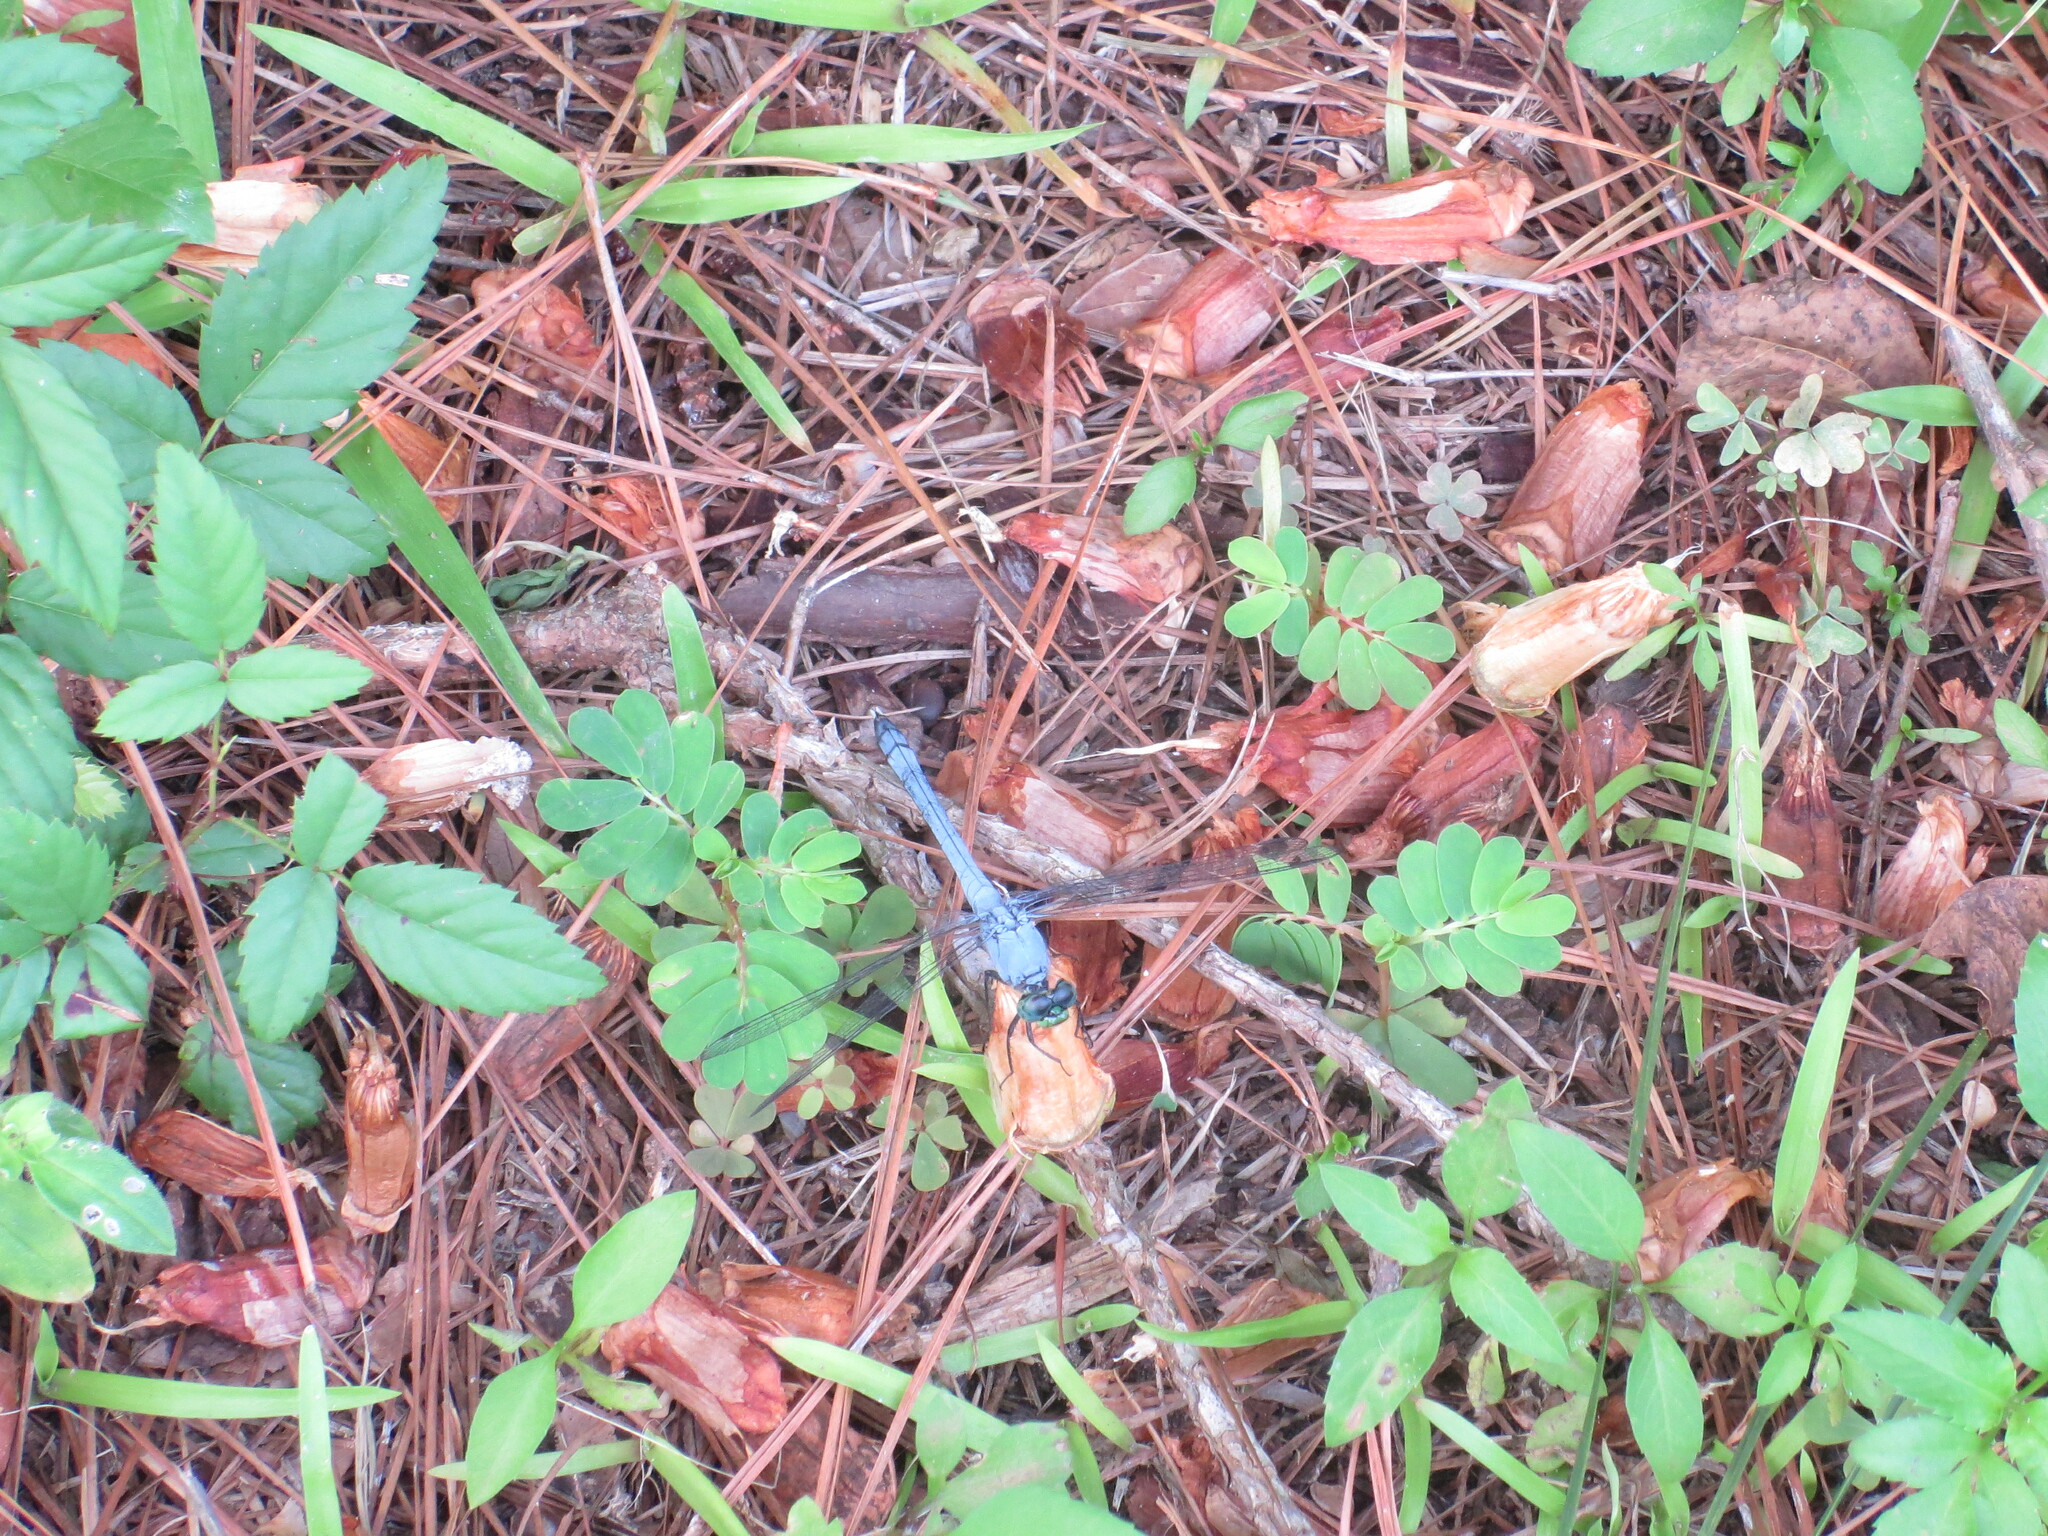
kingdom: Animalia
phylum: Arthropoda
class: Insecta
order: Odonata
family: Libellulidae
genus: Erythemis
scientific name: Erythemis simplicicollis
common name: Eastern pondhawk
